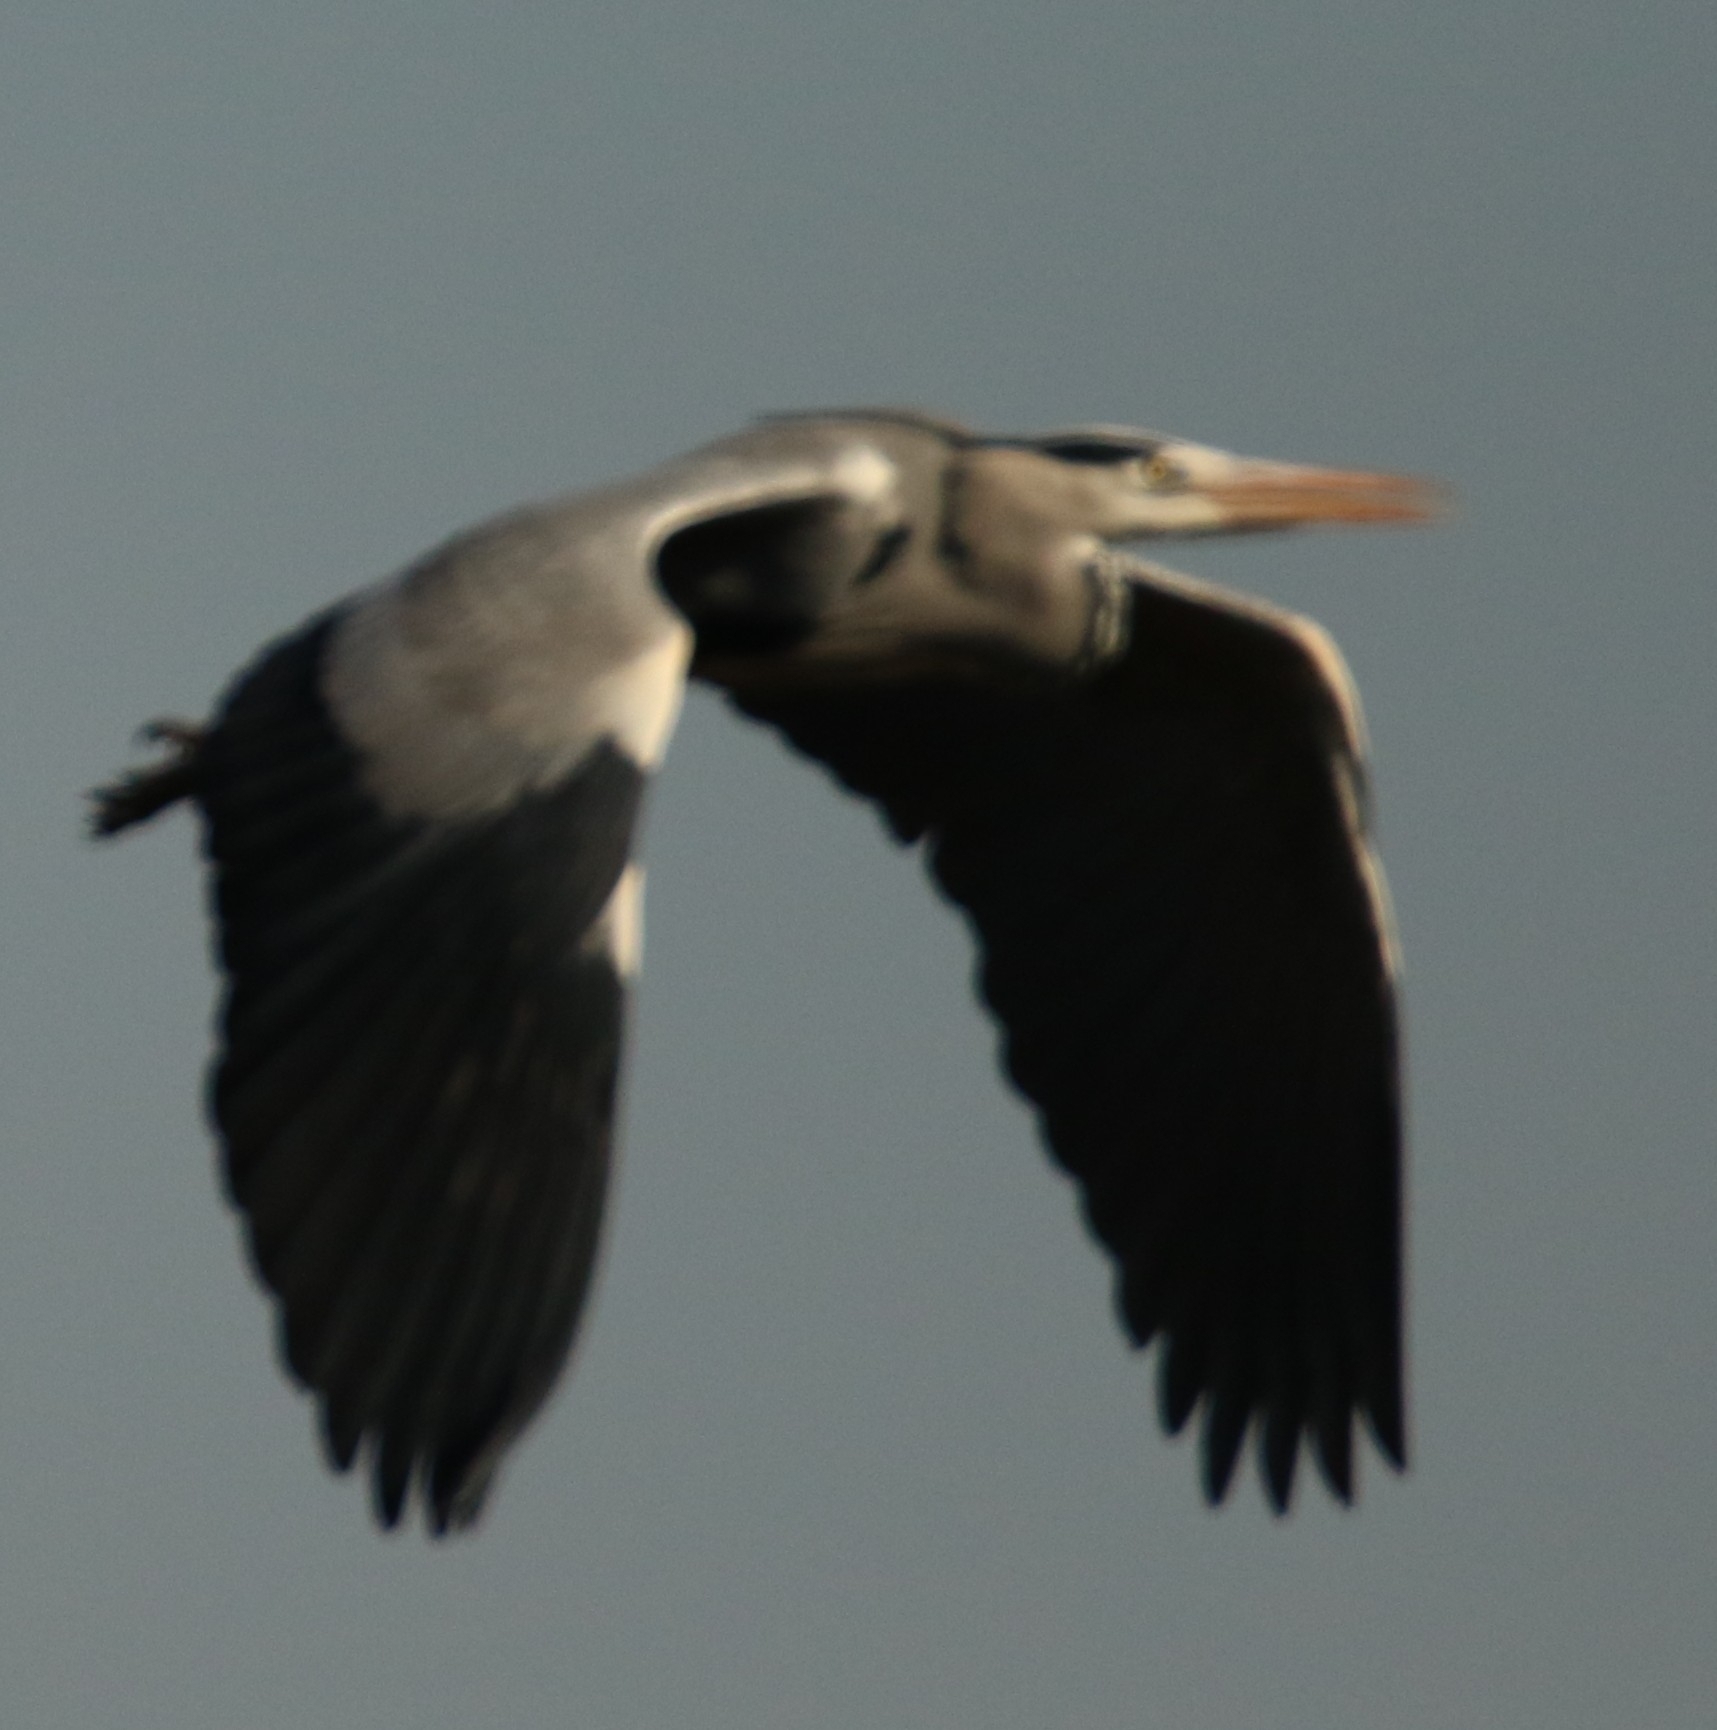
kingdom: Animalia
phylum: Chordata
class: Aves
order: Pelecaniformes
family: Ardeidae
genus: Ardea
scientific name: Ardea cinerea
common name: Grey heron
